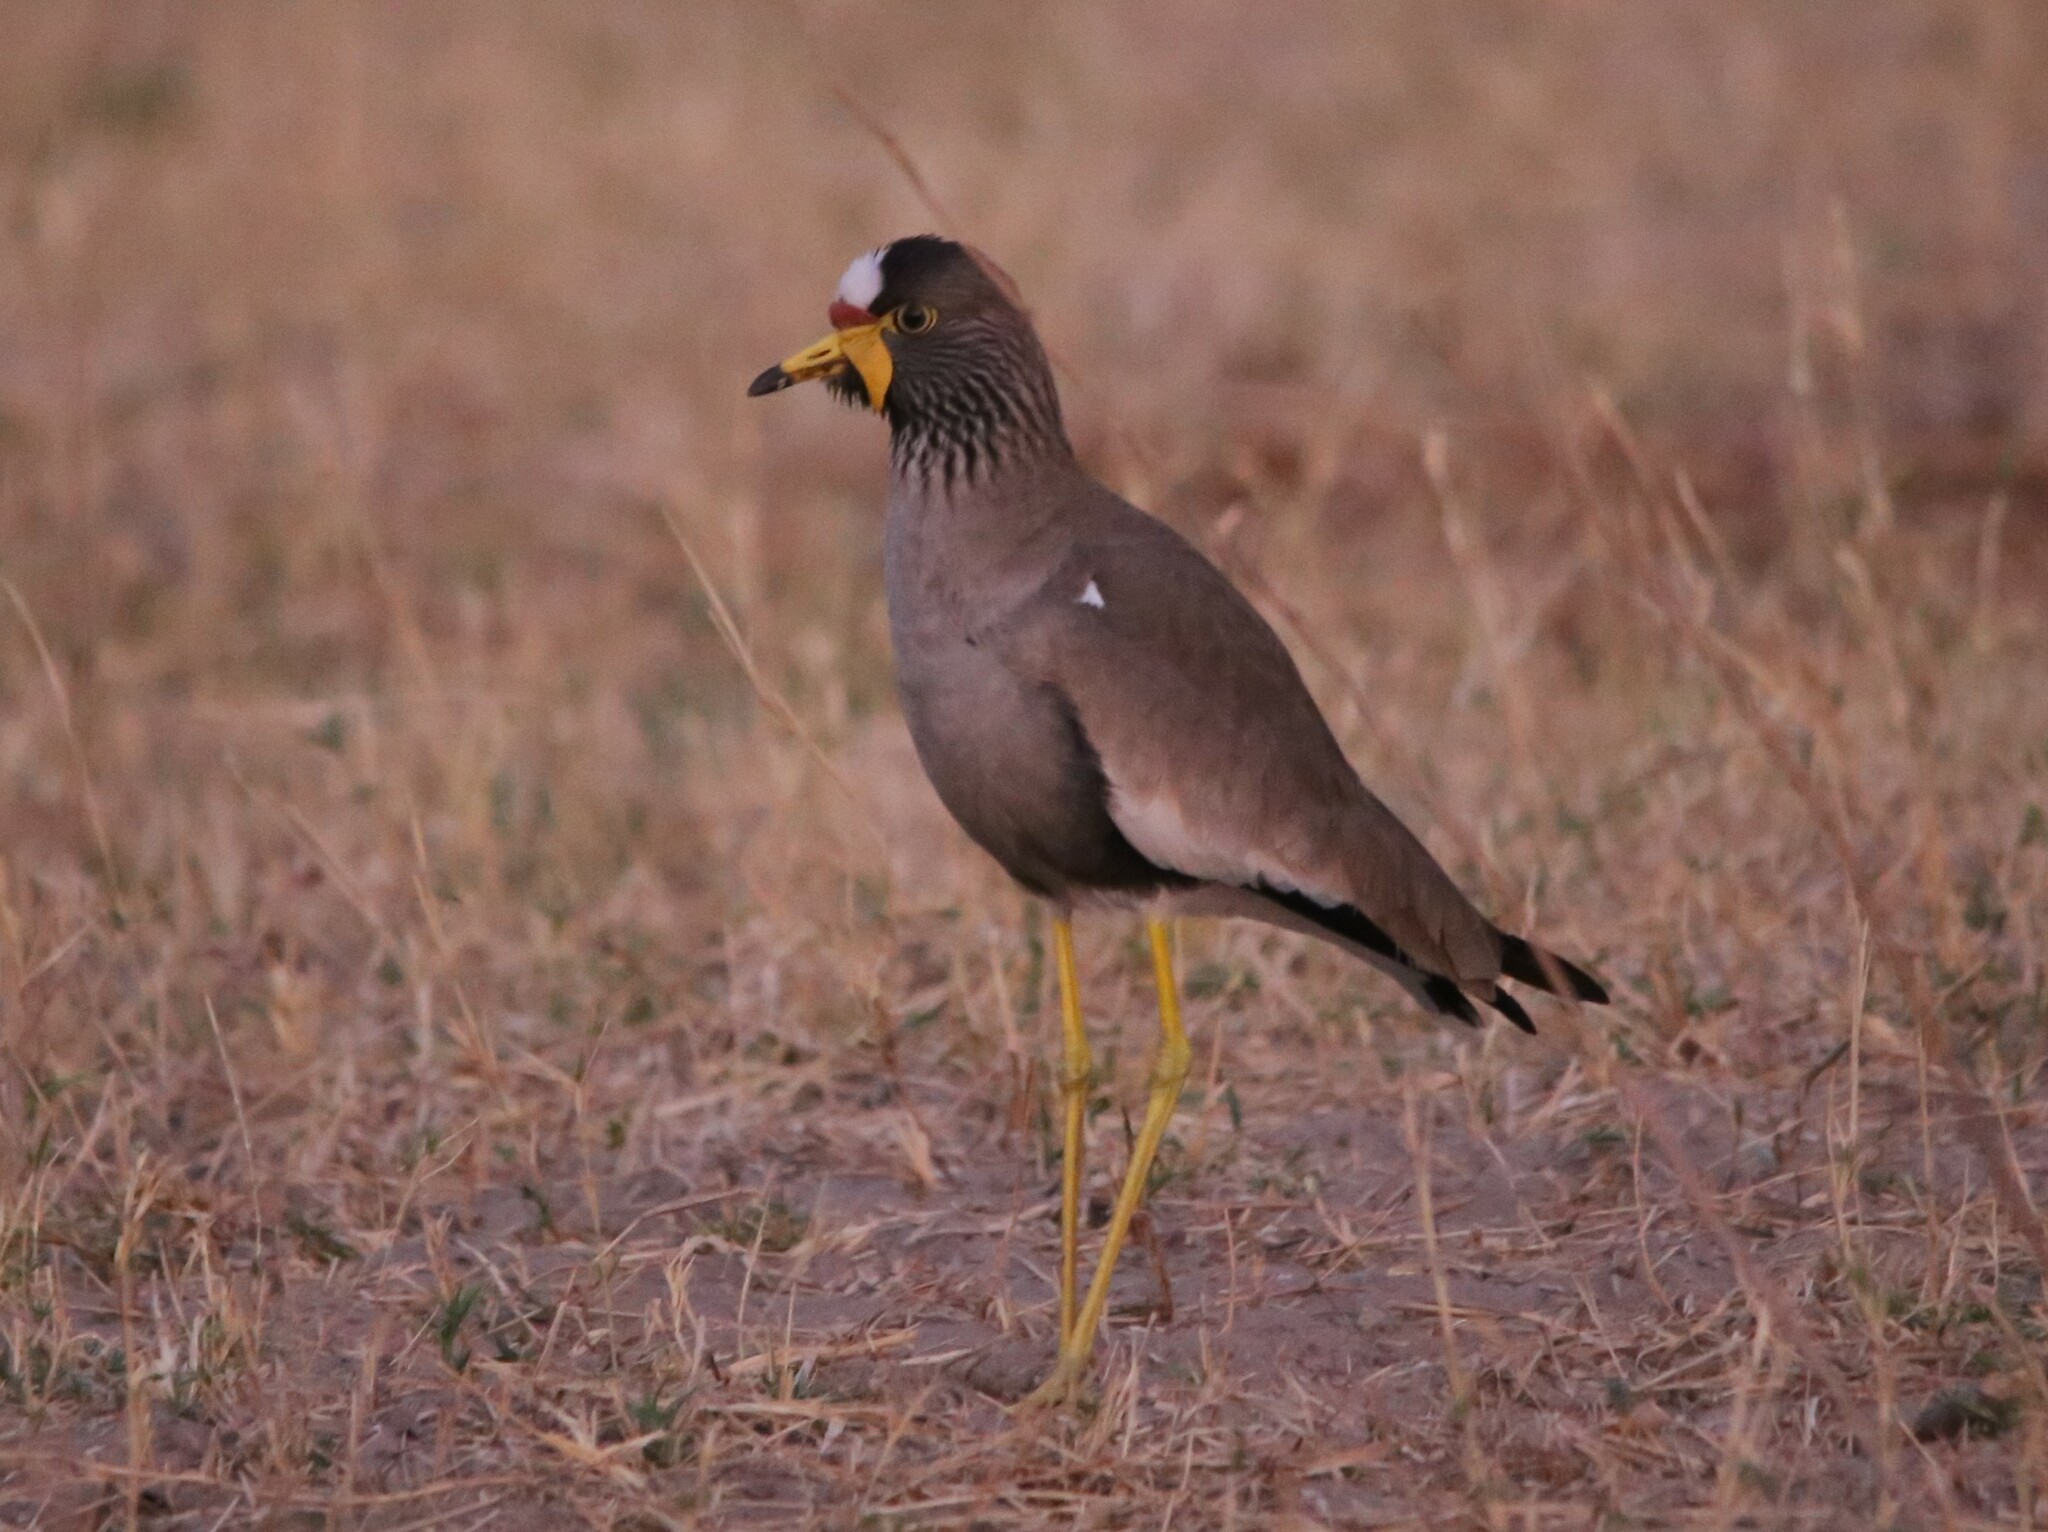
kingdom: Animalia
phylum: Chordata
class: Aves
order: Charadriiformes
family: Charadriidae
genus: Vanellus
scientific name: Vanellus senegallus
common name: African wattled lapwing
